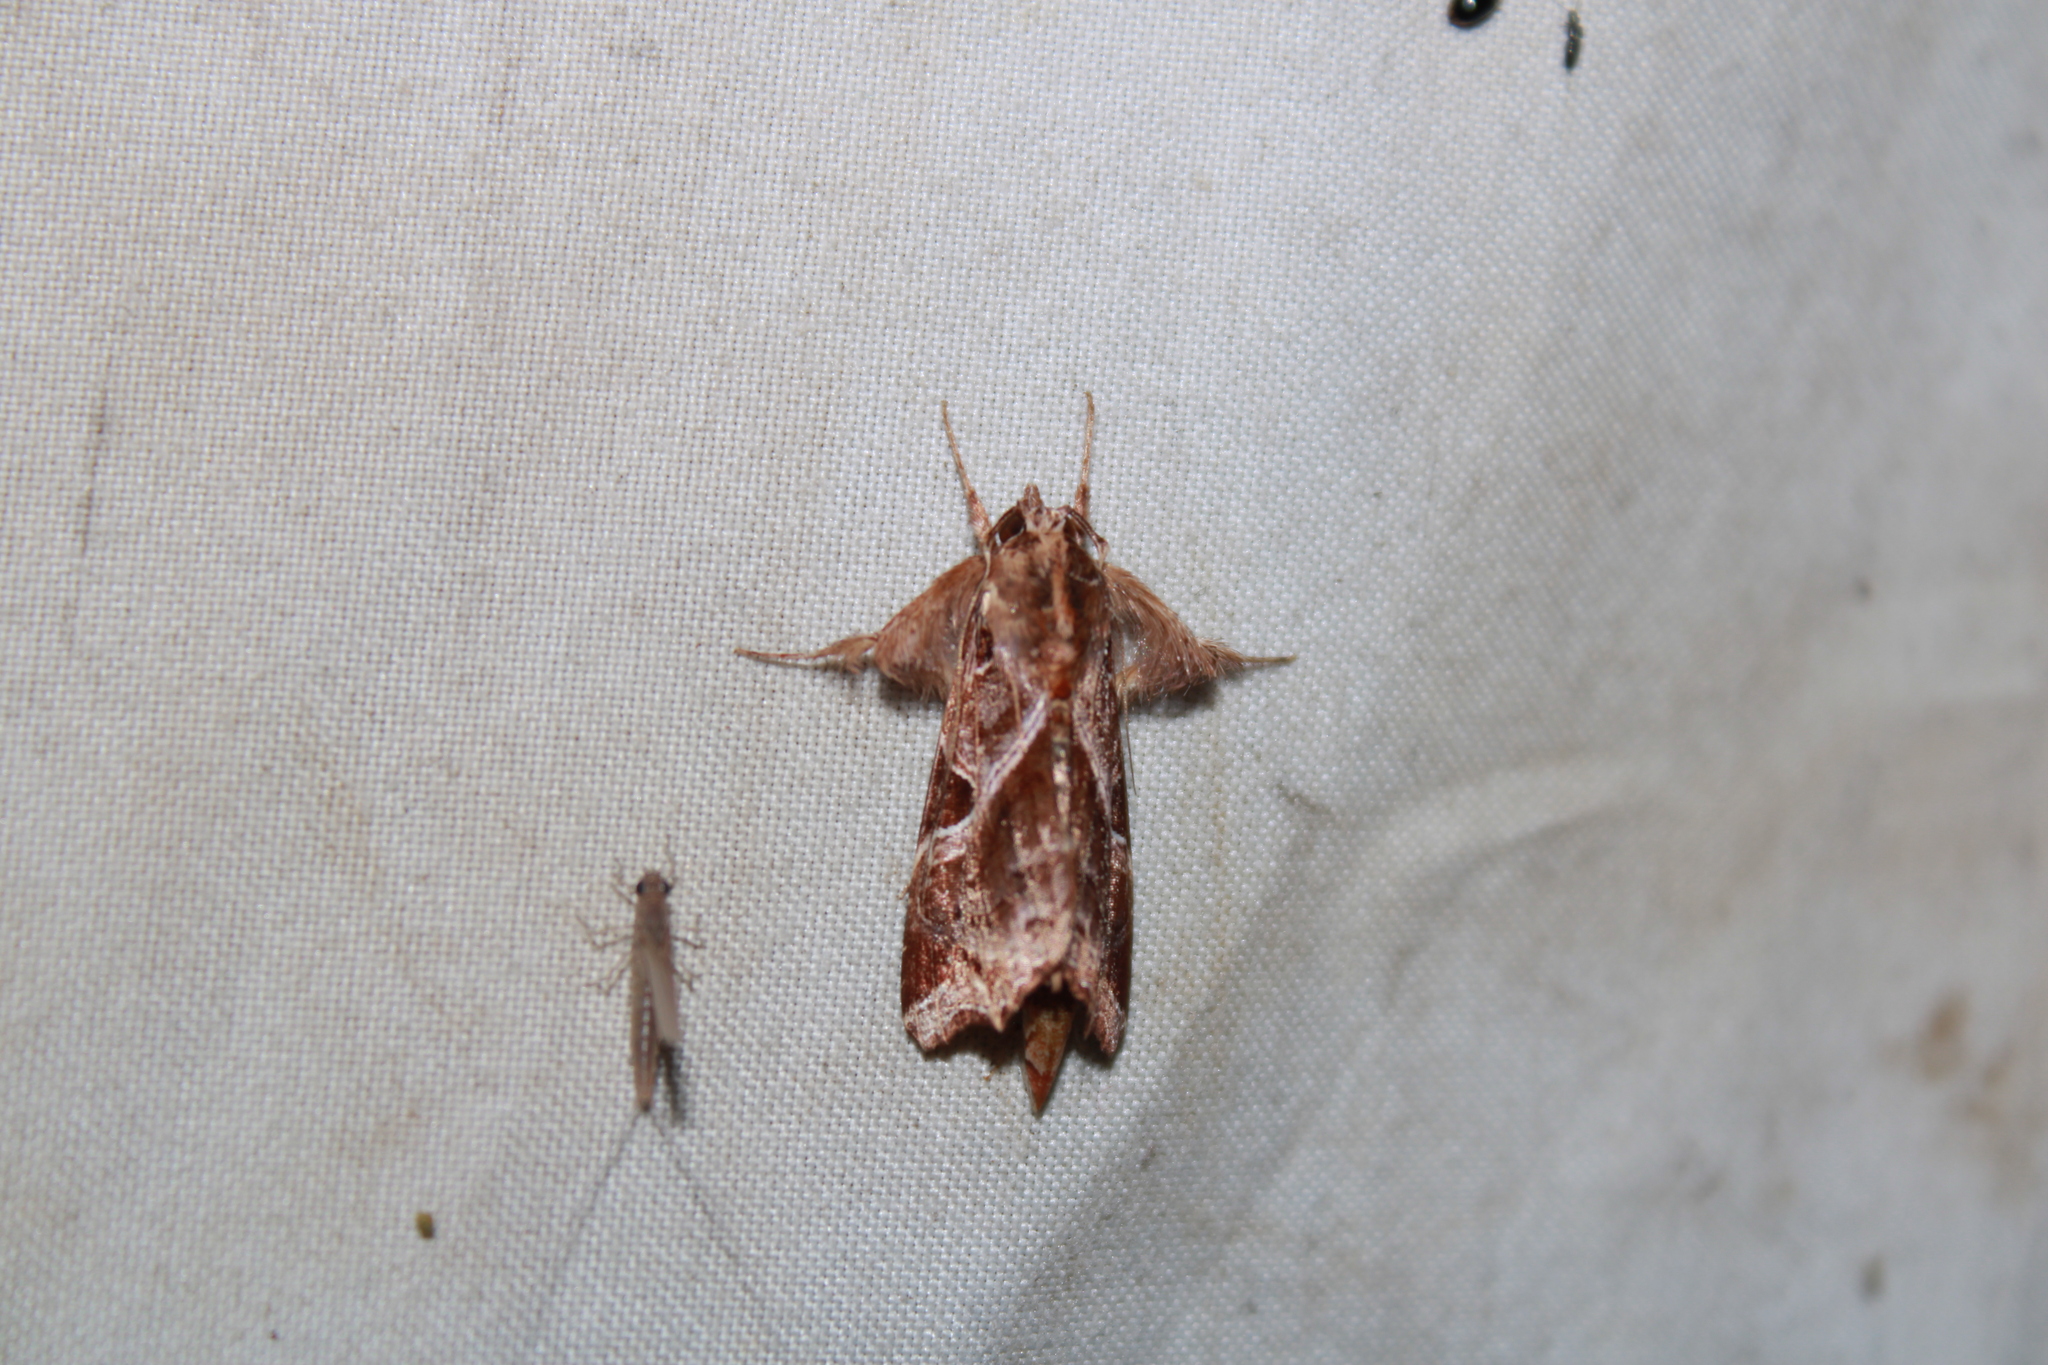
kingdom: Animalia
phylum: Arthropoda
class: Insecta
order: Lepidoptera
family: Noctuidae
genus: Callopistria
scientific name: Callopistria floridensis
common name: Florida fern moth
